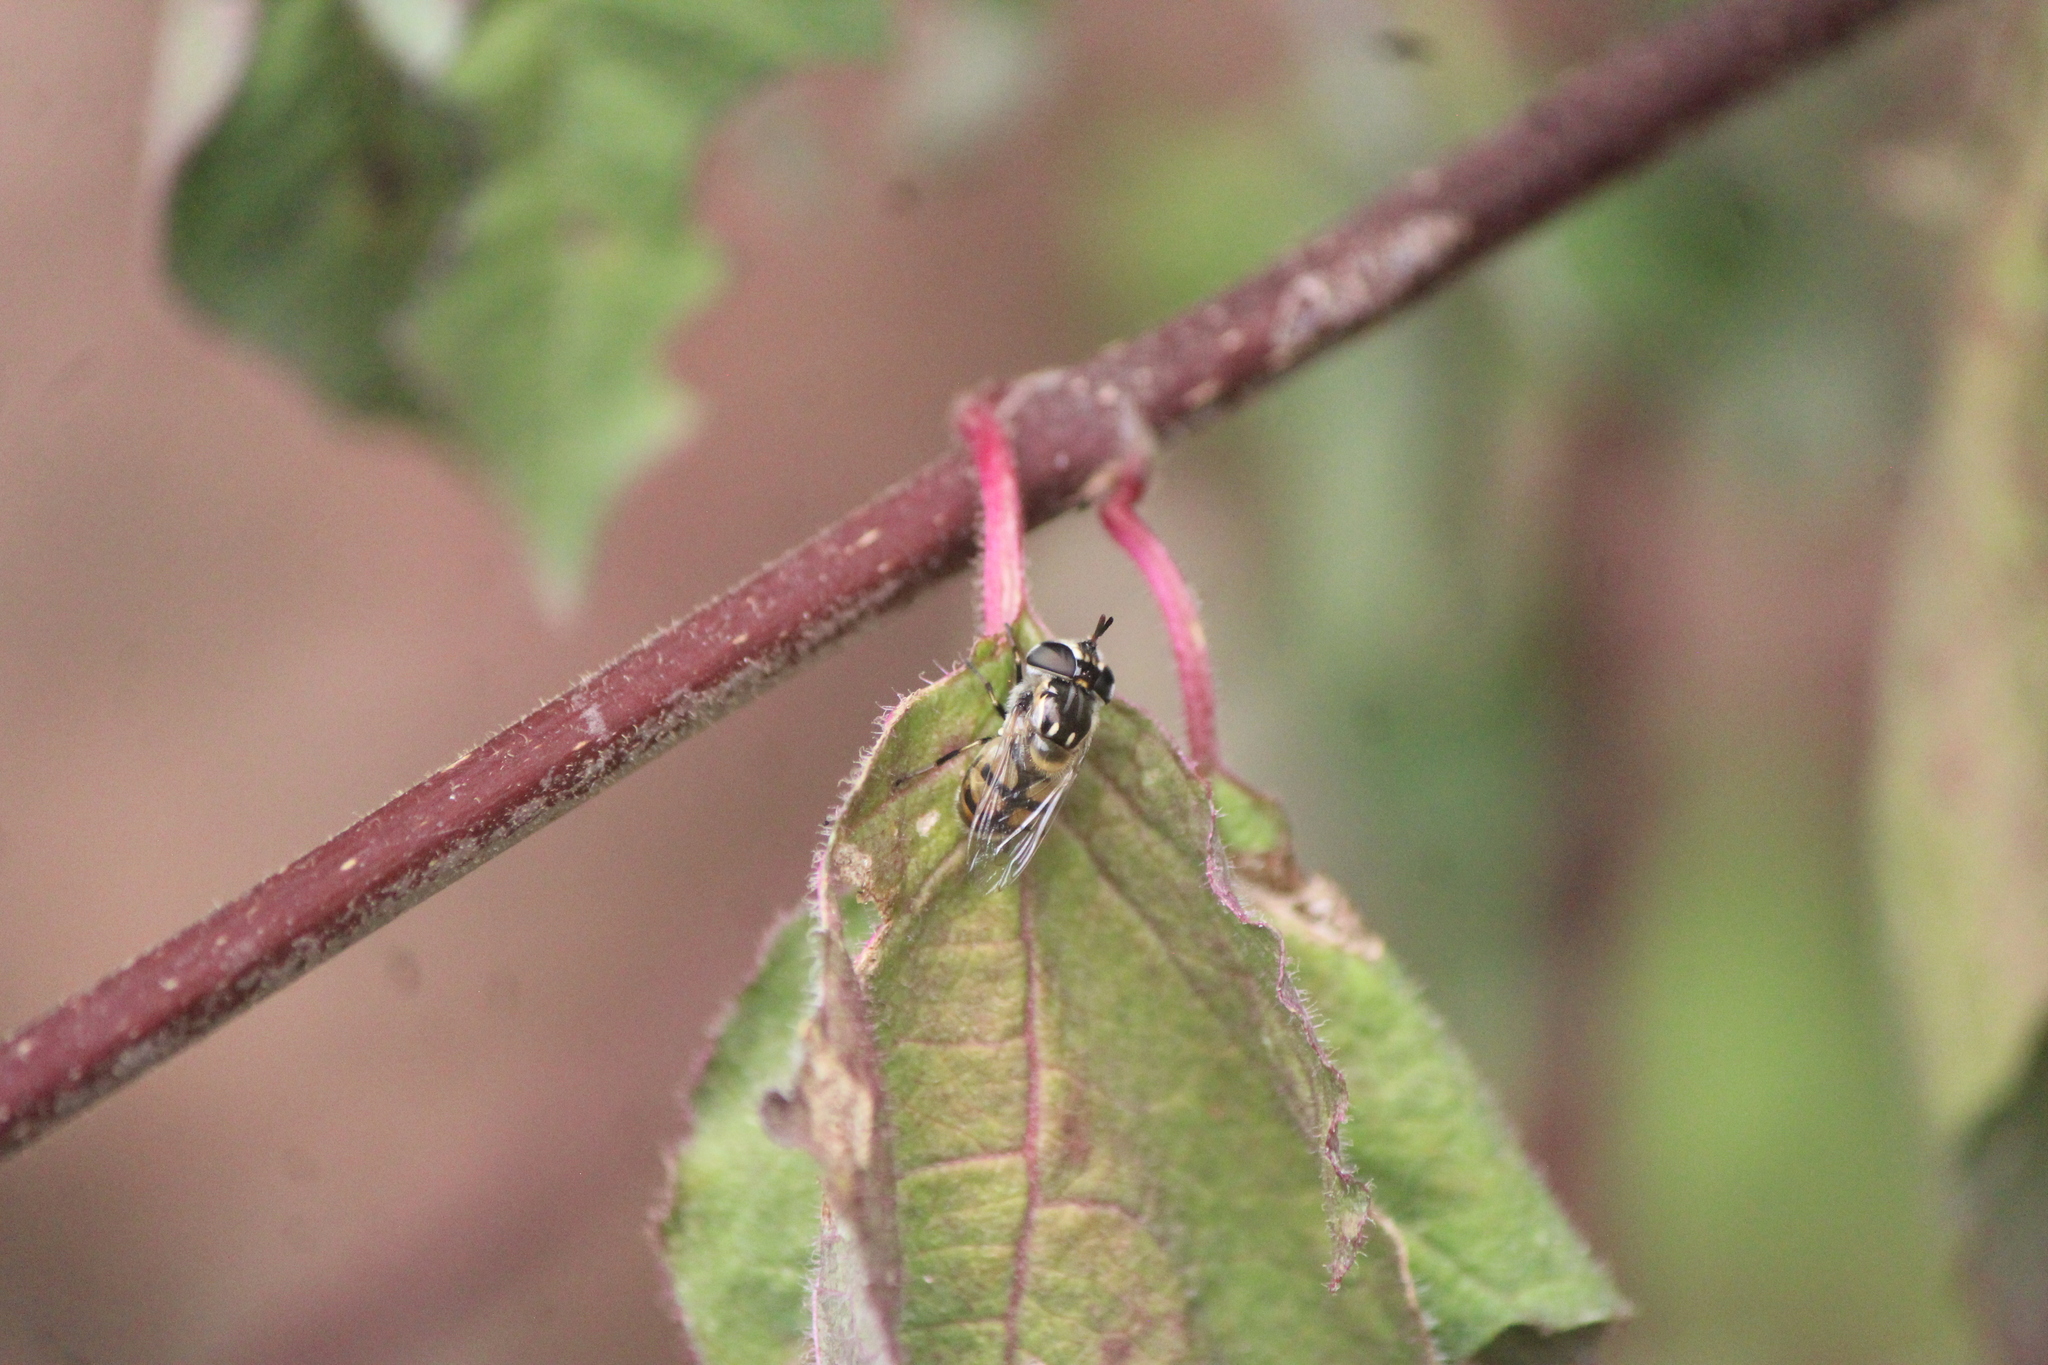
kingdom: Animalia
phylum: Arthropoda
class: Insecta
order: Diptera
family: Syrphidae
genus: Copestylum
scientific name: Copestylum marginatum
